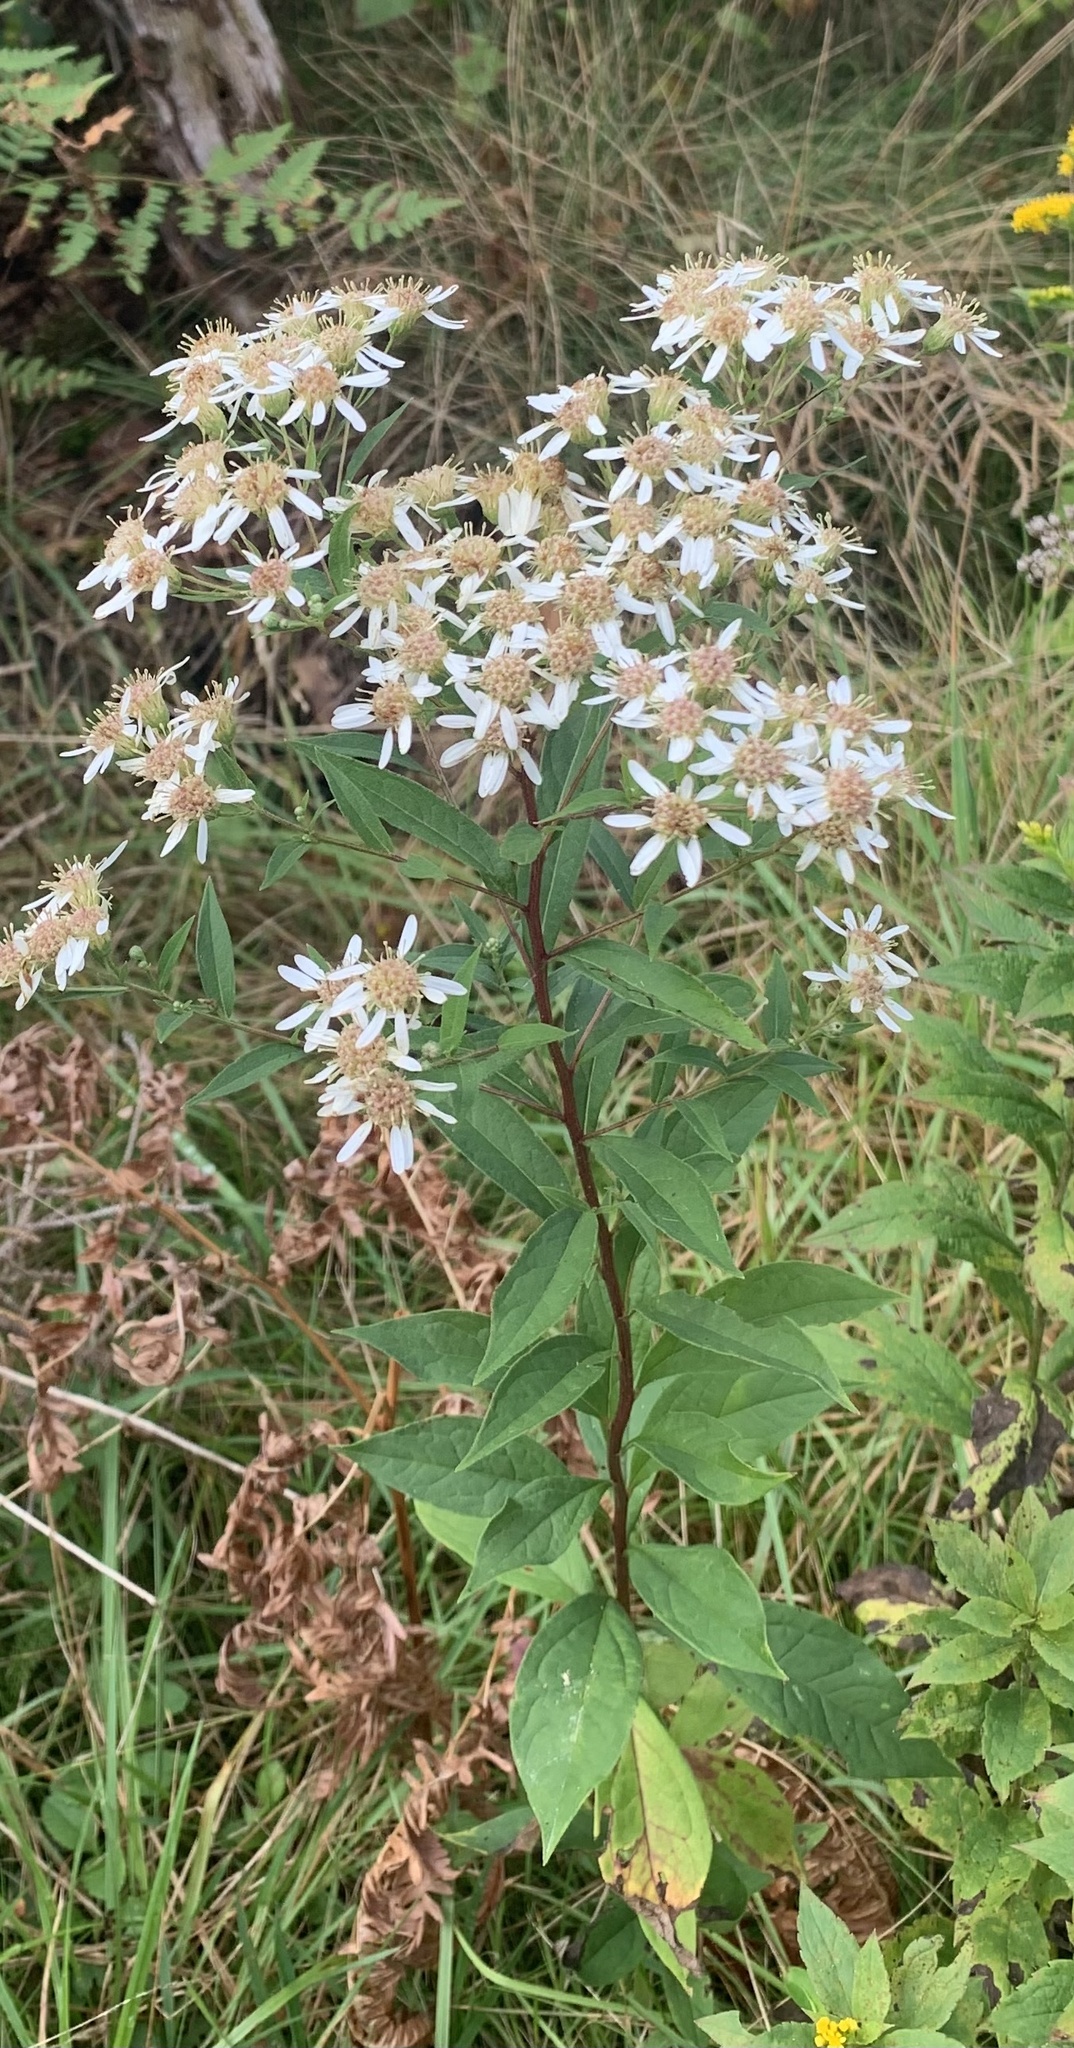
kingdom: Plantae
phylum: Tracheophyta
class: Magnoliopsida
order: Asterales
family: Asteraceae
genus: Doellingeria
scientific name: Doellingeria umbellata
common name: Flat-top white aster
